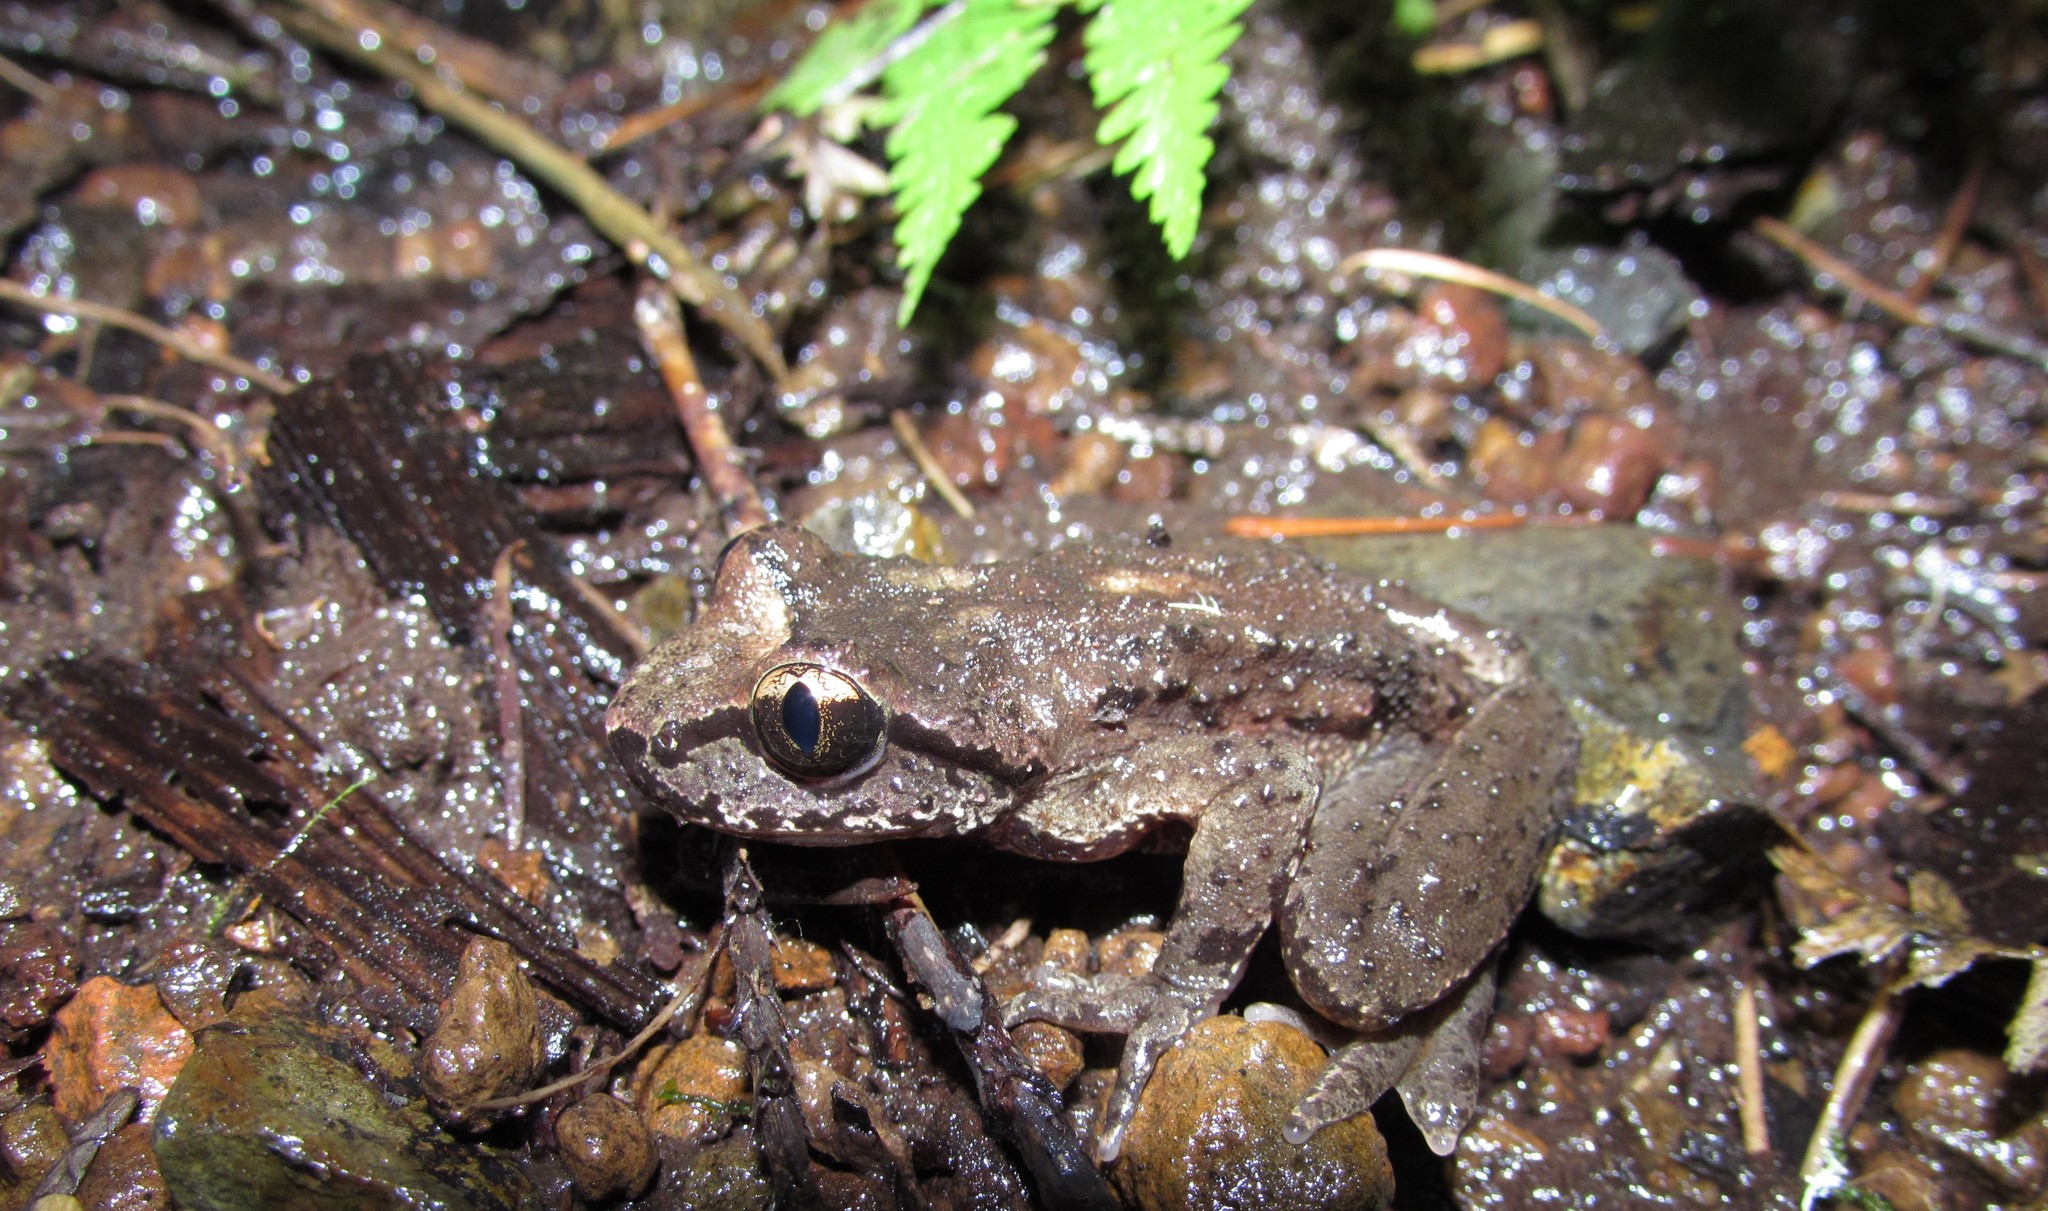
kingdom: Animalia
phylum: Chordata
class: Amphibia
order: Anura
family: Ascaphidae
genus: Ascaphus
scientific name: Ascaphus truei
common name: Tailed frog
